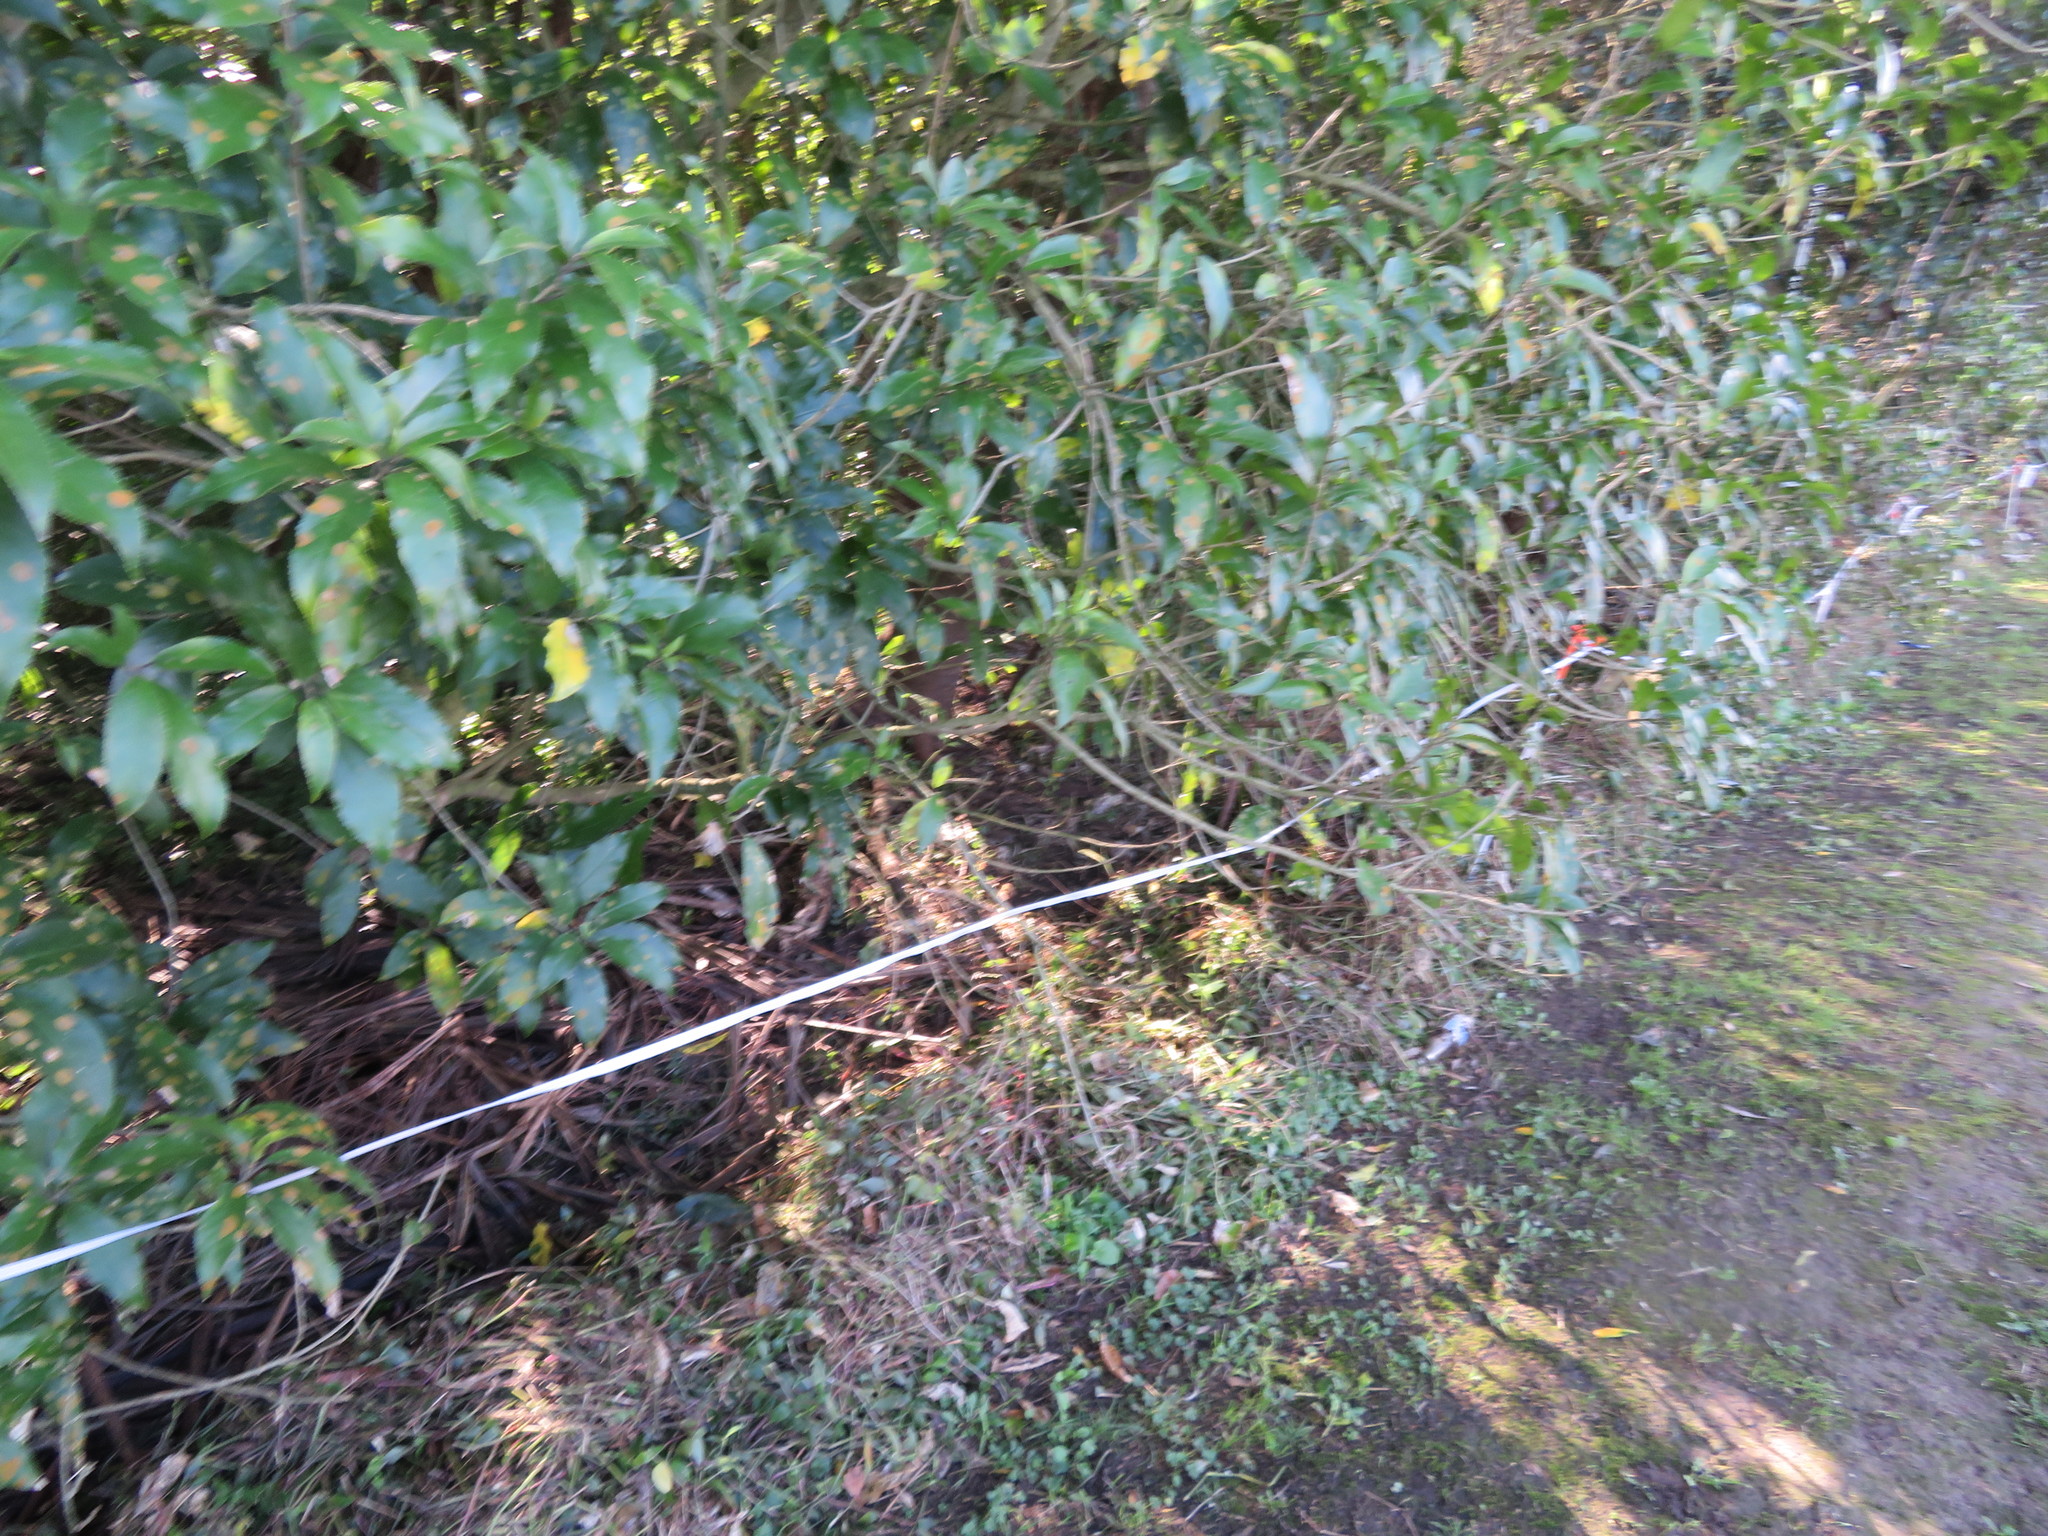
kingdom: Plantae
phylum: Tracheophyta
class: Liliopsida
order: Commelinales
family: Commelinaceae
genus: Tradescantia
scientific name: Tradescantia fluminensis
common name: Wandering-jew
